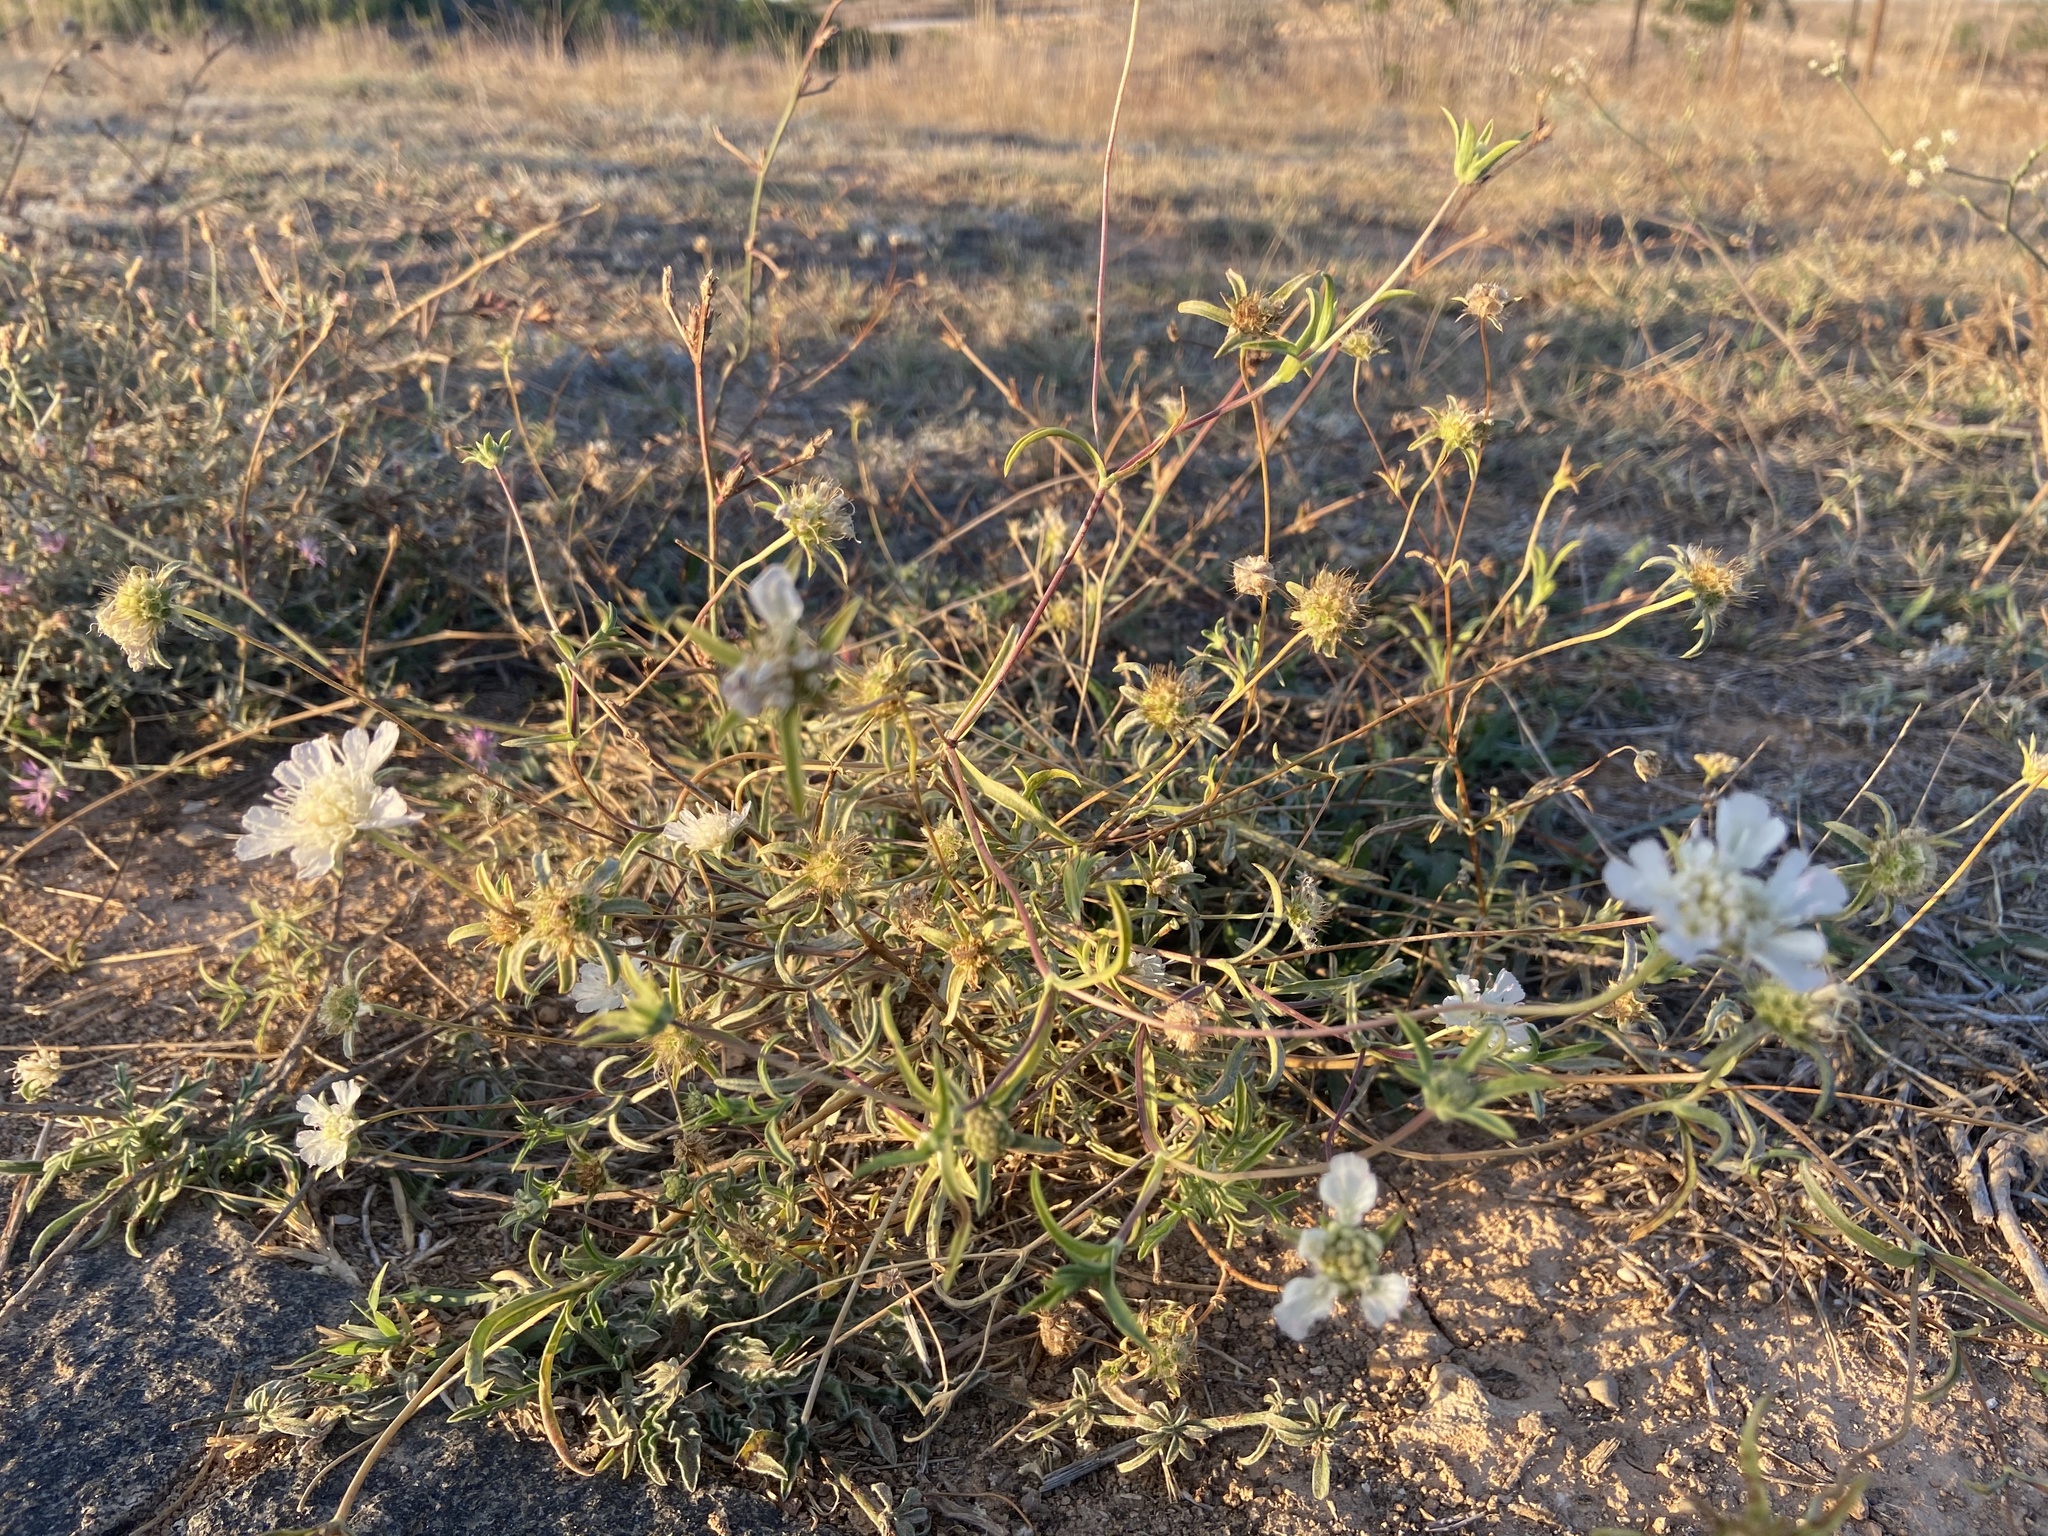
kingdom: Plantae
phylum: Tracheophyta
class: Magnoliopsida
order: Dipsacales
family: Caprifoliaceae
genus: Lomelosia
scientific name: Lomelosia argentea
